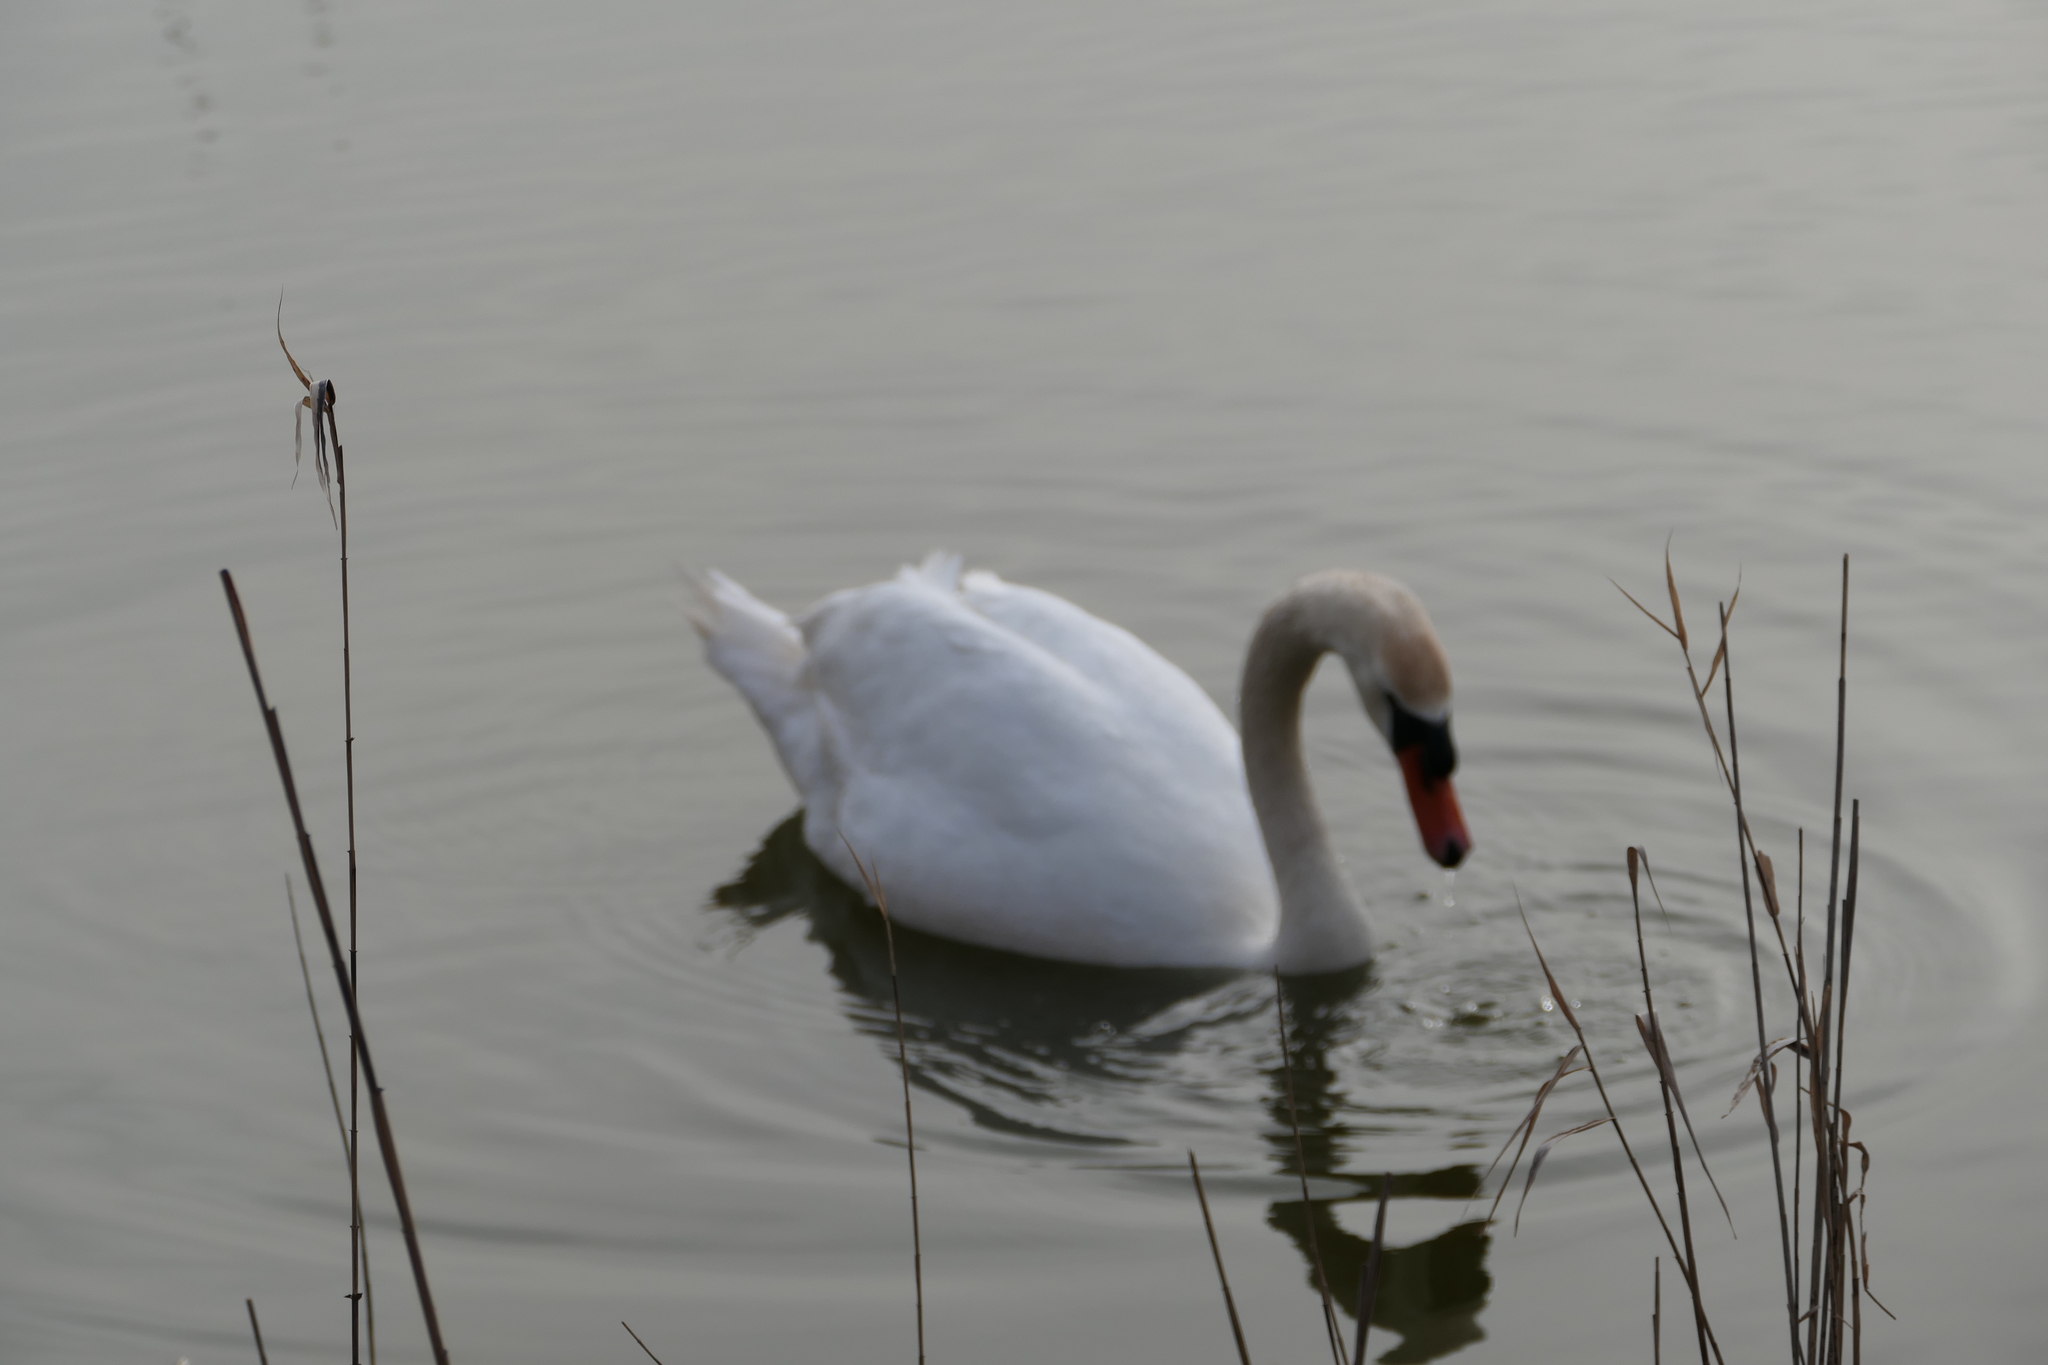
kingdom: Animalia
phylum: Chordata
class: Aves
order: Anseriformes
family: Anatidae
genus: Cygnus
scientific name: Cygnus olor
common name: Mute swan
